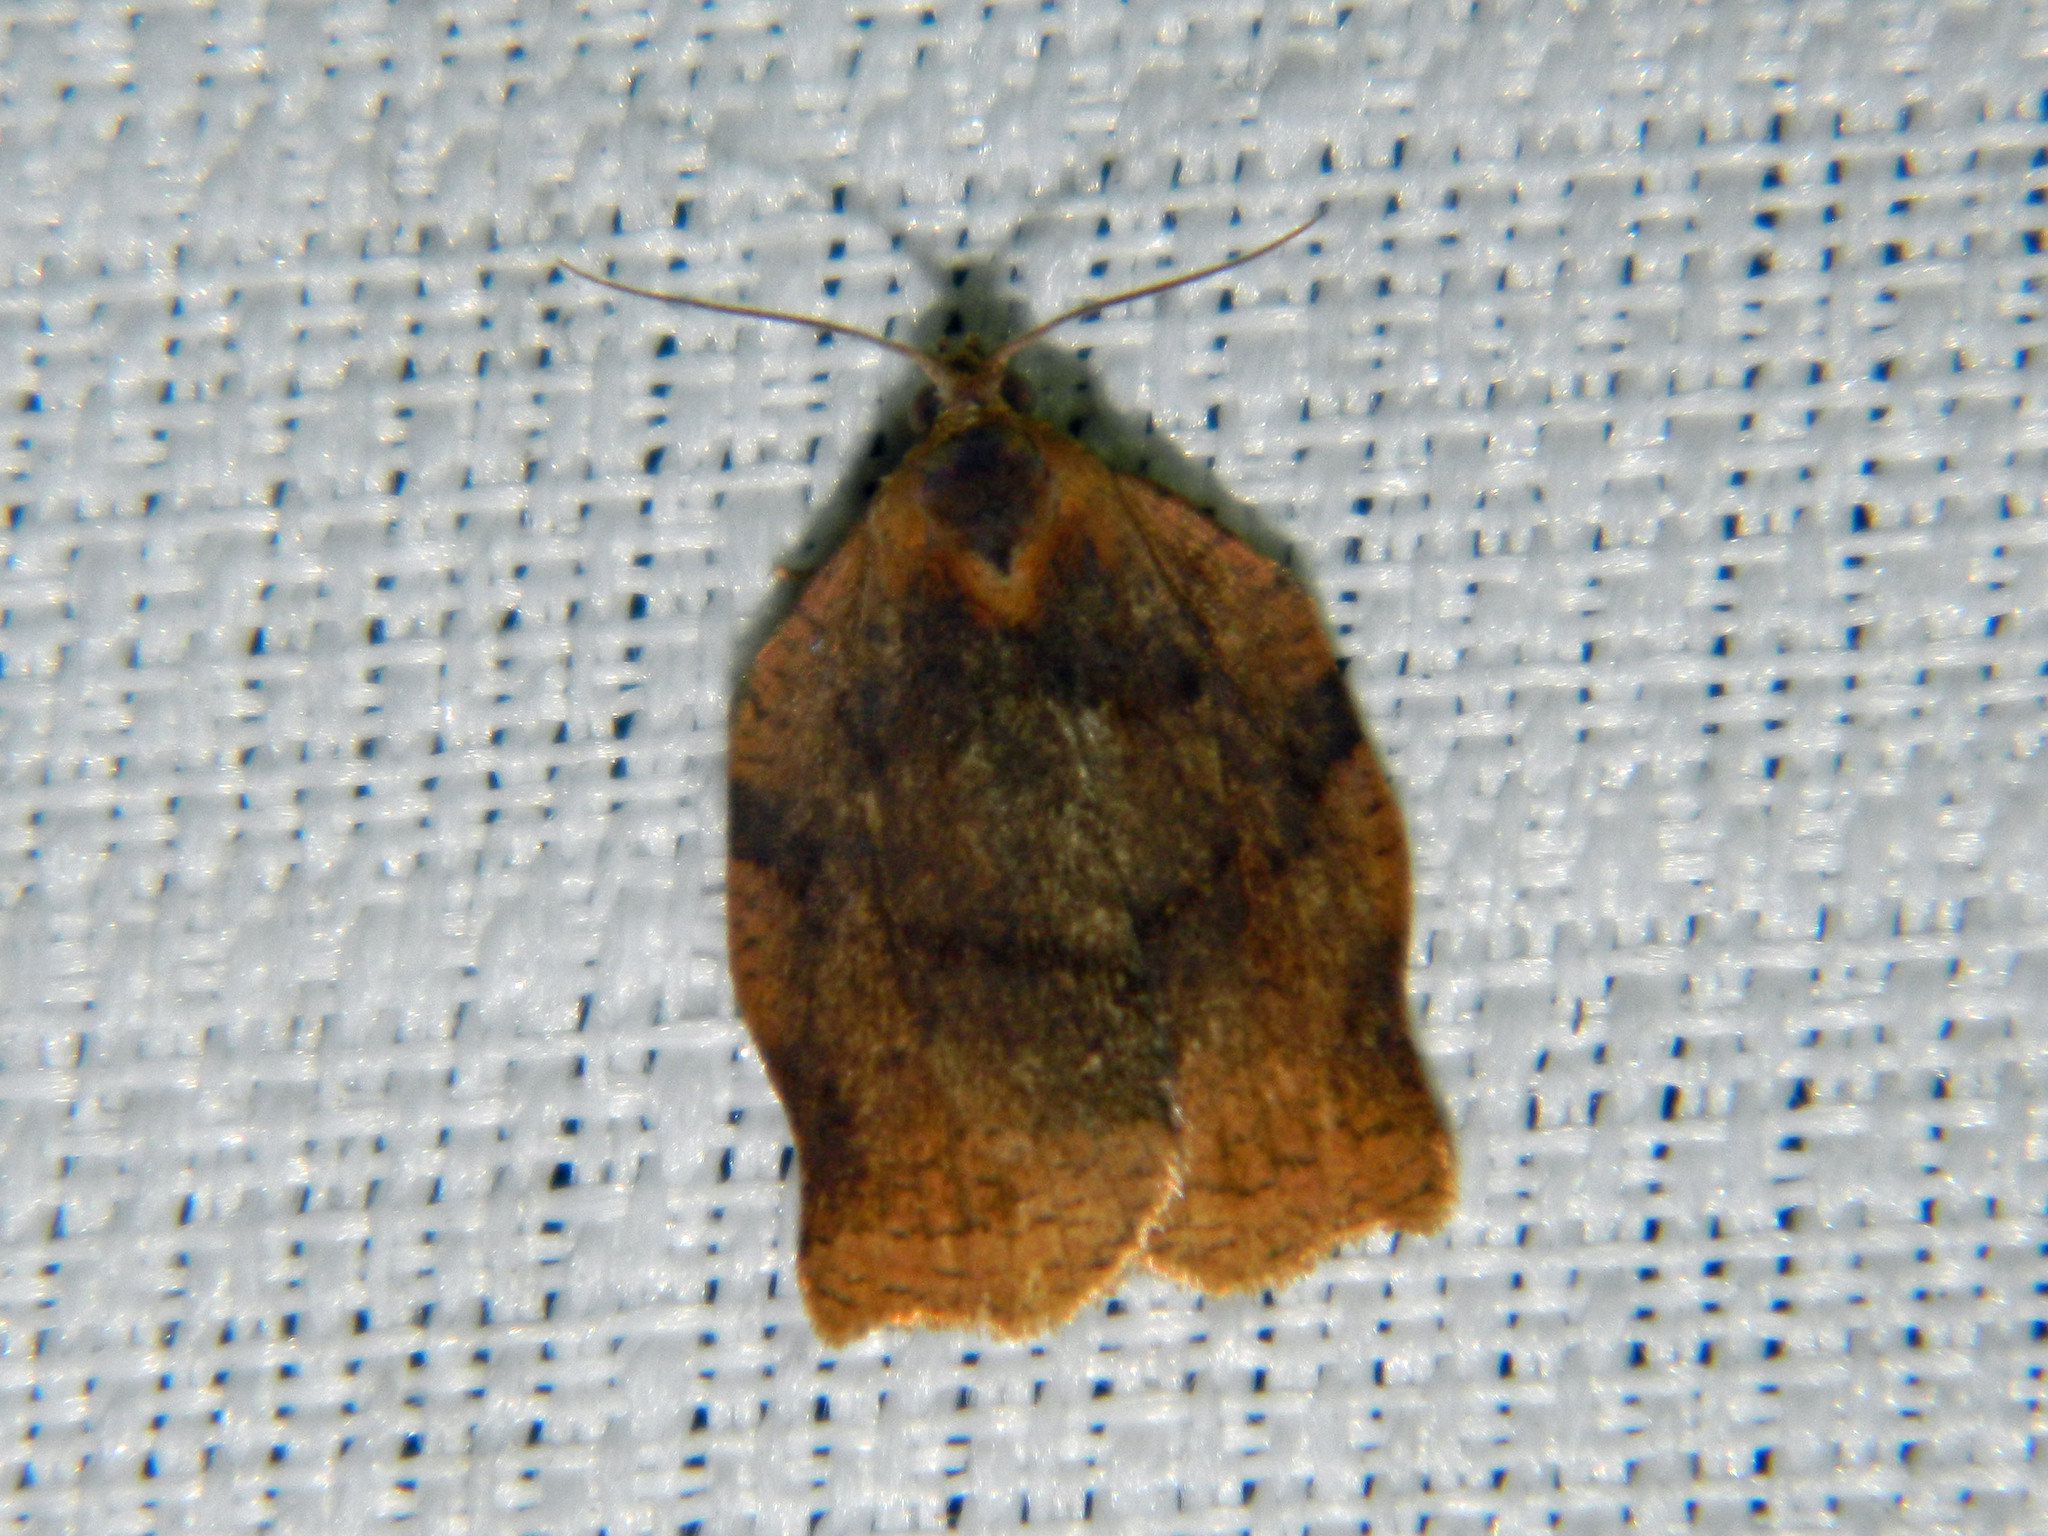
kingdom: Animalia
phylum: Arthropoda
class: Insecta
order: Lepidoptera
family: Tortricidae
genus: Archips
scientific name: Archips purpurana
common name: Omnivorous leafroller
